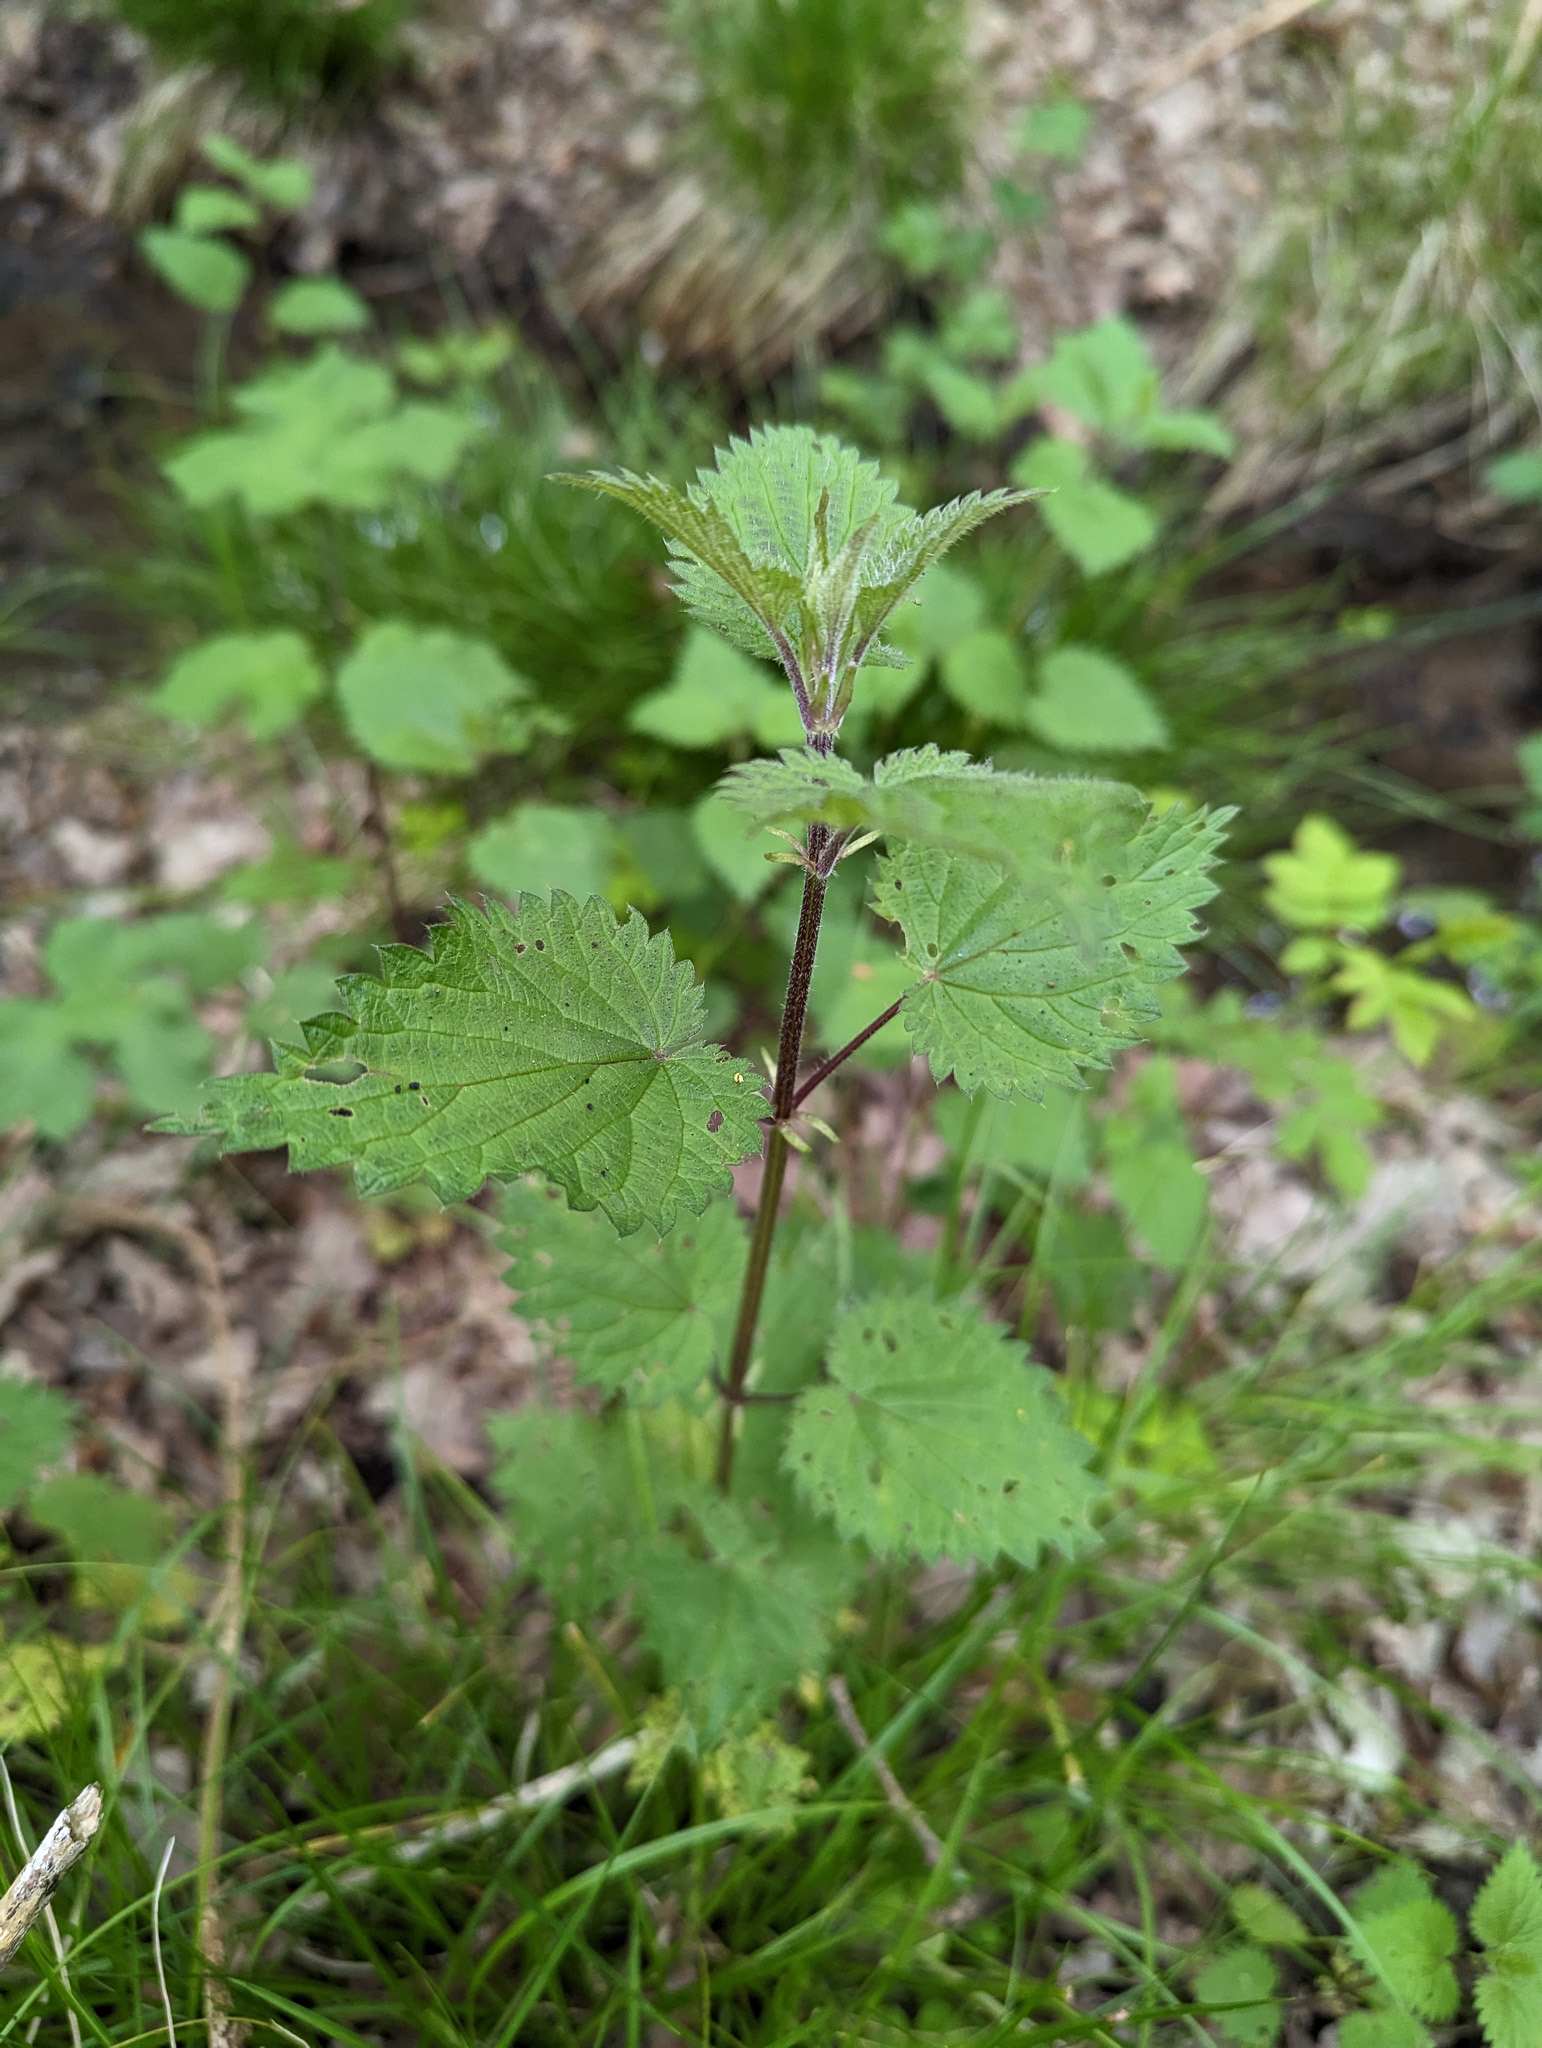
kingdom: Plantae
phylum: Tracheophyta
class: Magnoliopsida
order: Rosales
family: Urticaceae
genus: Urtica
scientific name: Urtica dioica
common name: Common nettle
